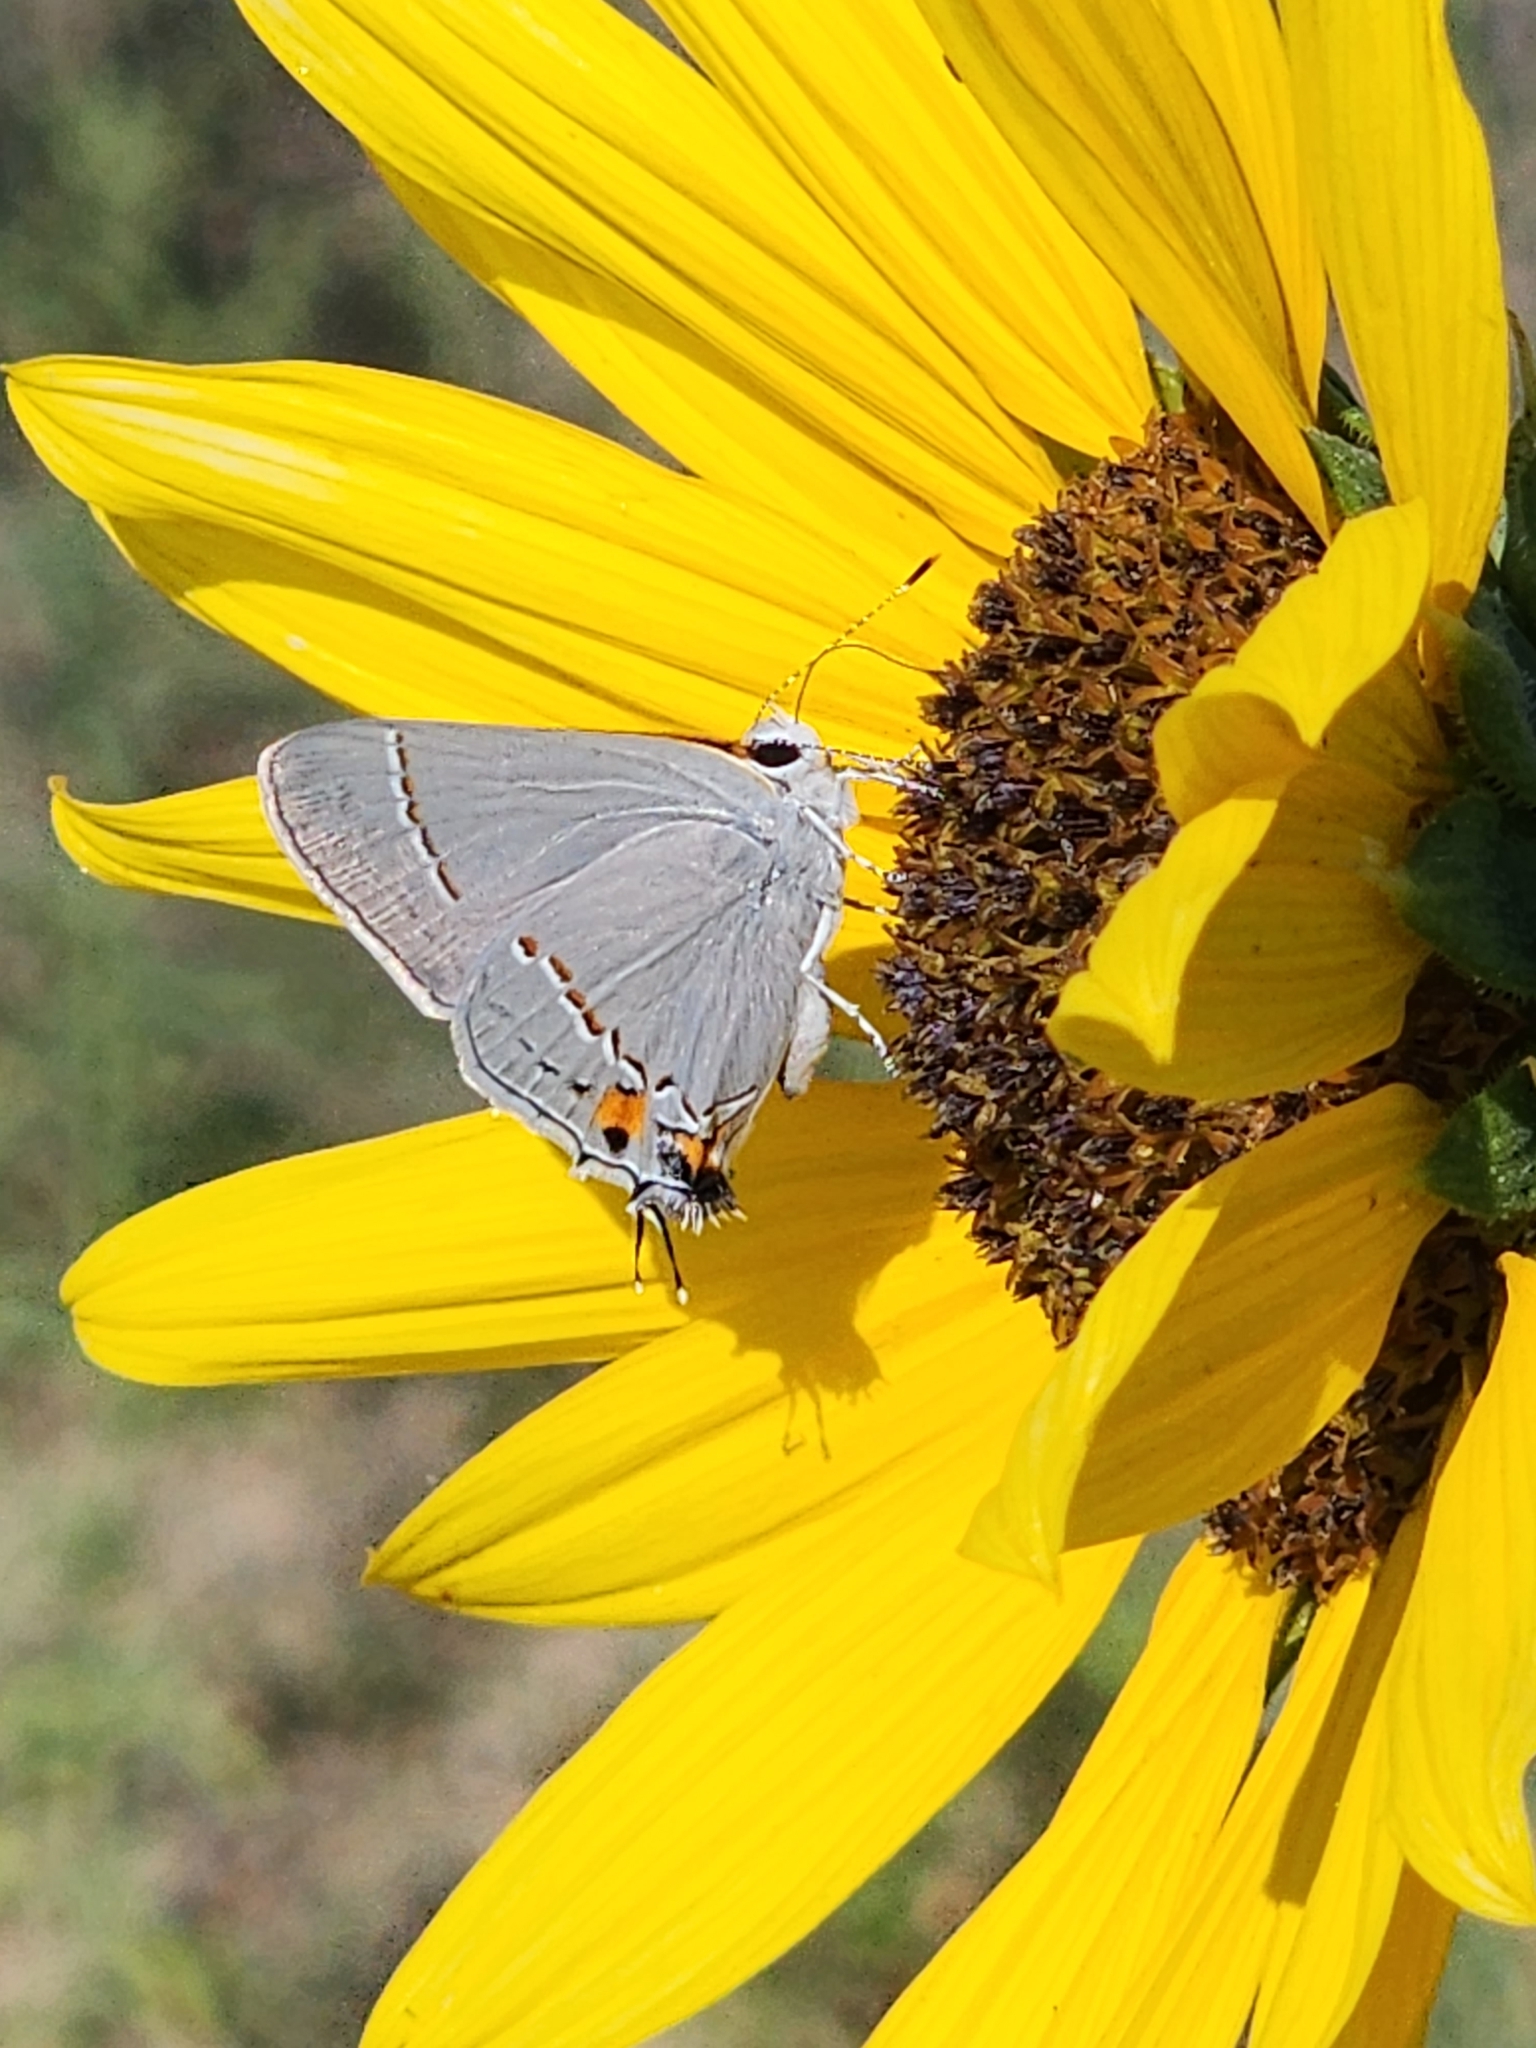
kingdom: Animalia
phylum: Arthropoda
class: Insecta
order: Lepidoptera
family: Lycaenidae
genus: Strymon
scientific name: Strymon melinus
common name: Gray hairstreak
